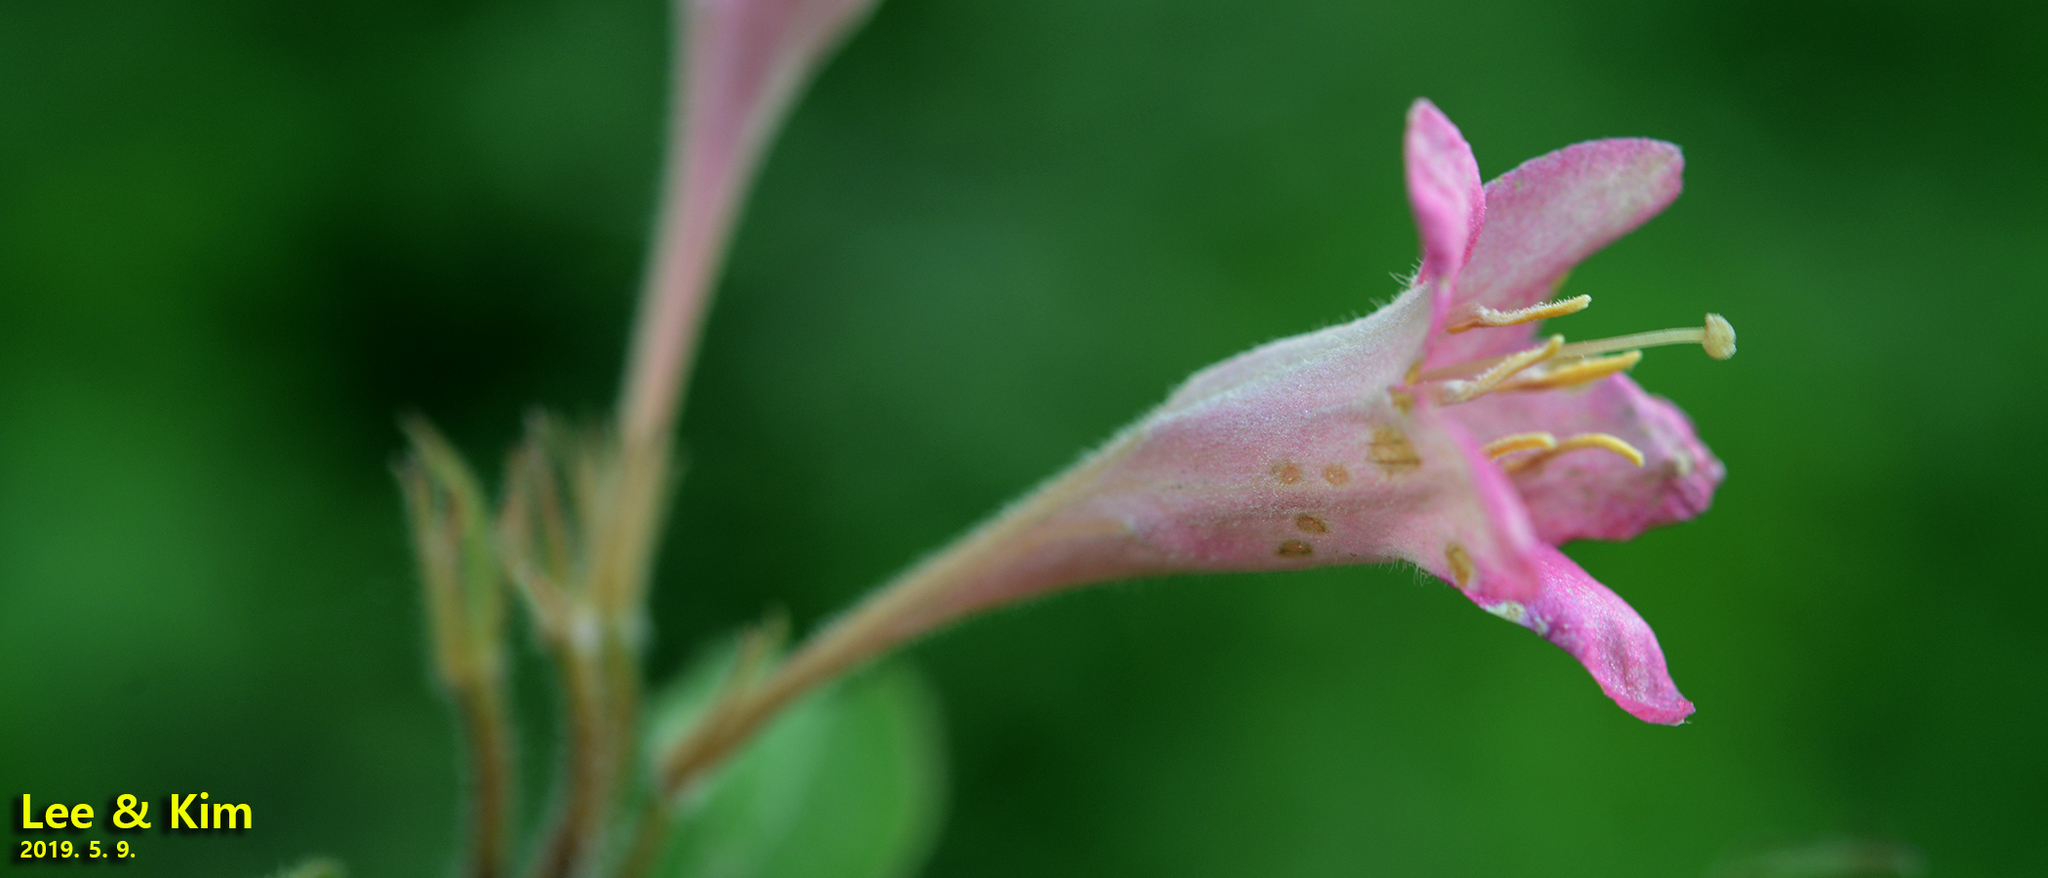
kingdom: Plantae
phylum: Tracheophyta
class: Magnoliopsida
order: Dipsacales
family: Caprifoliaceae
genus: Weigela
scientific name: Weigela subsessilis
